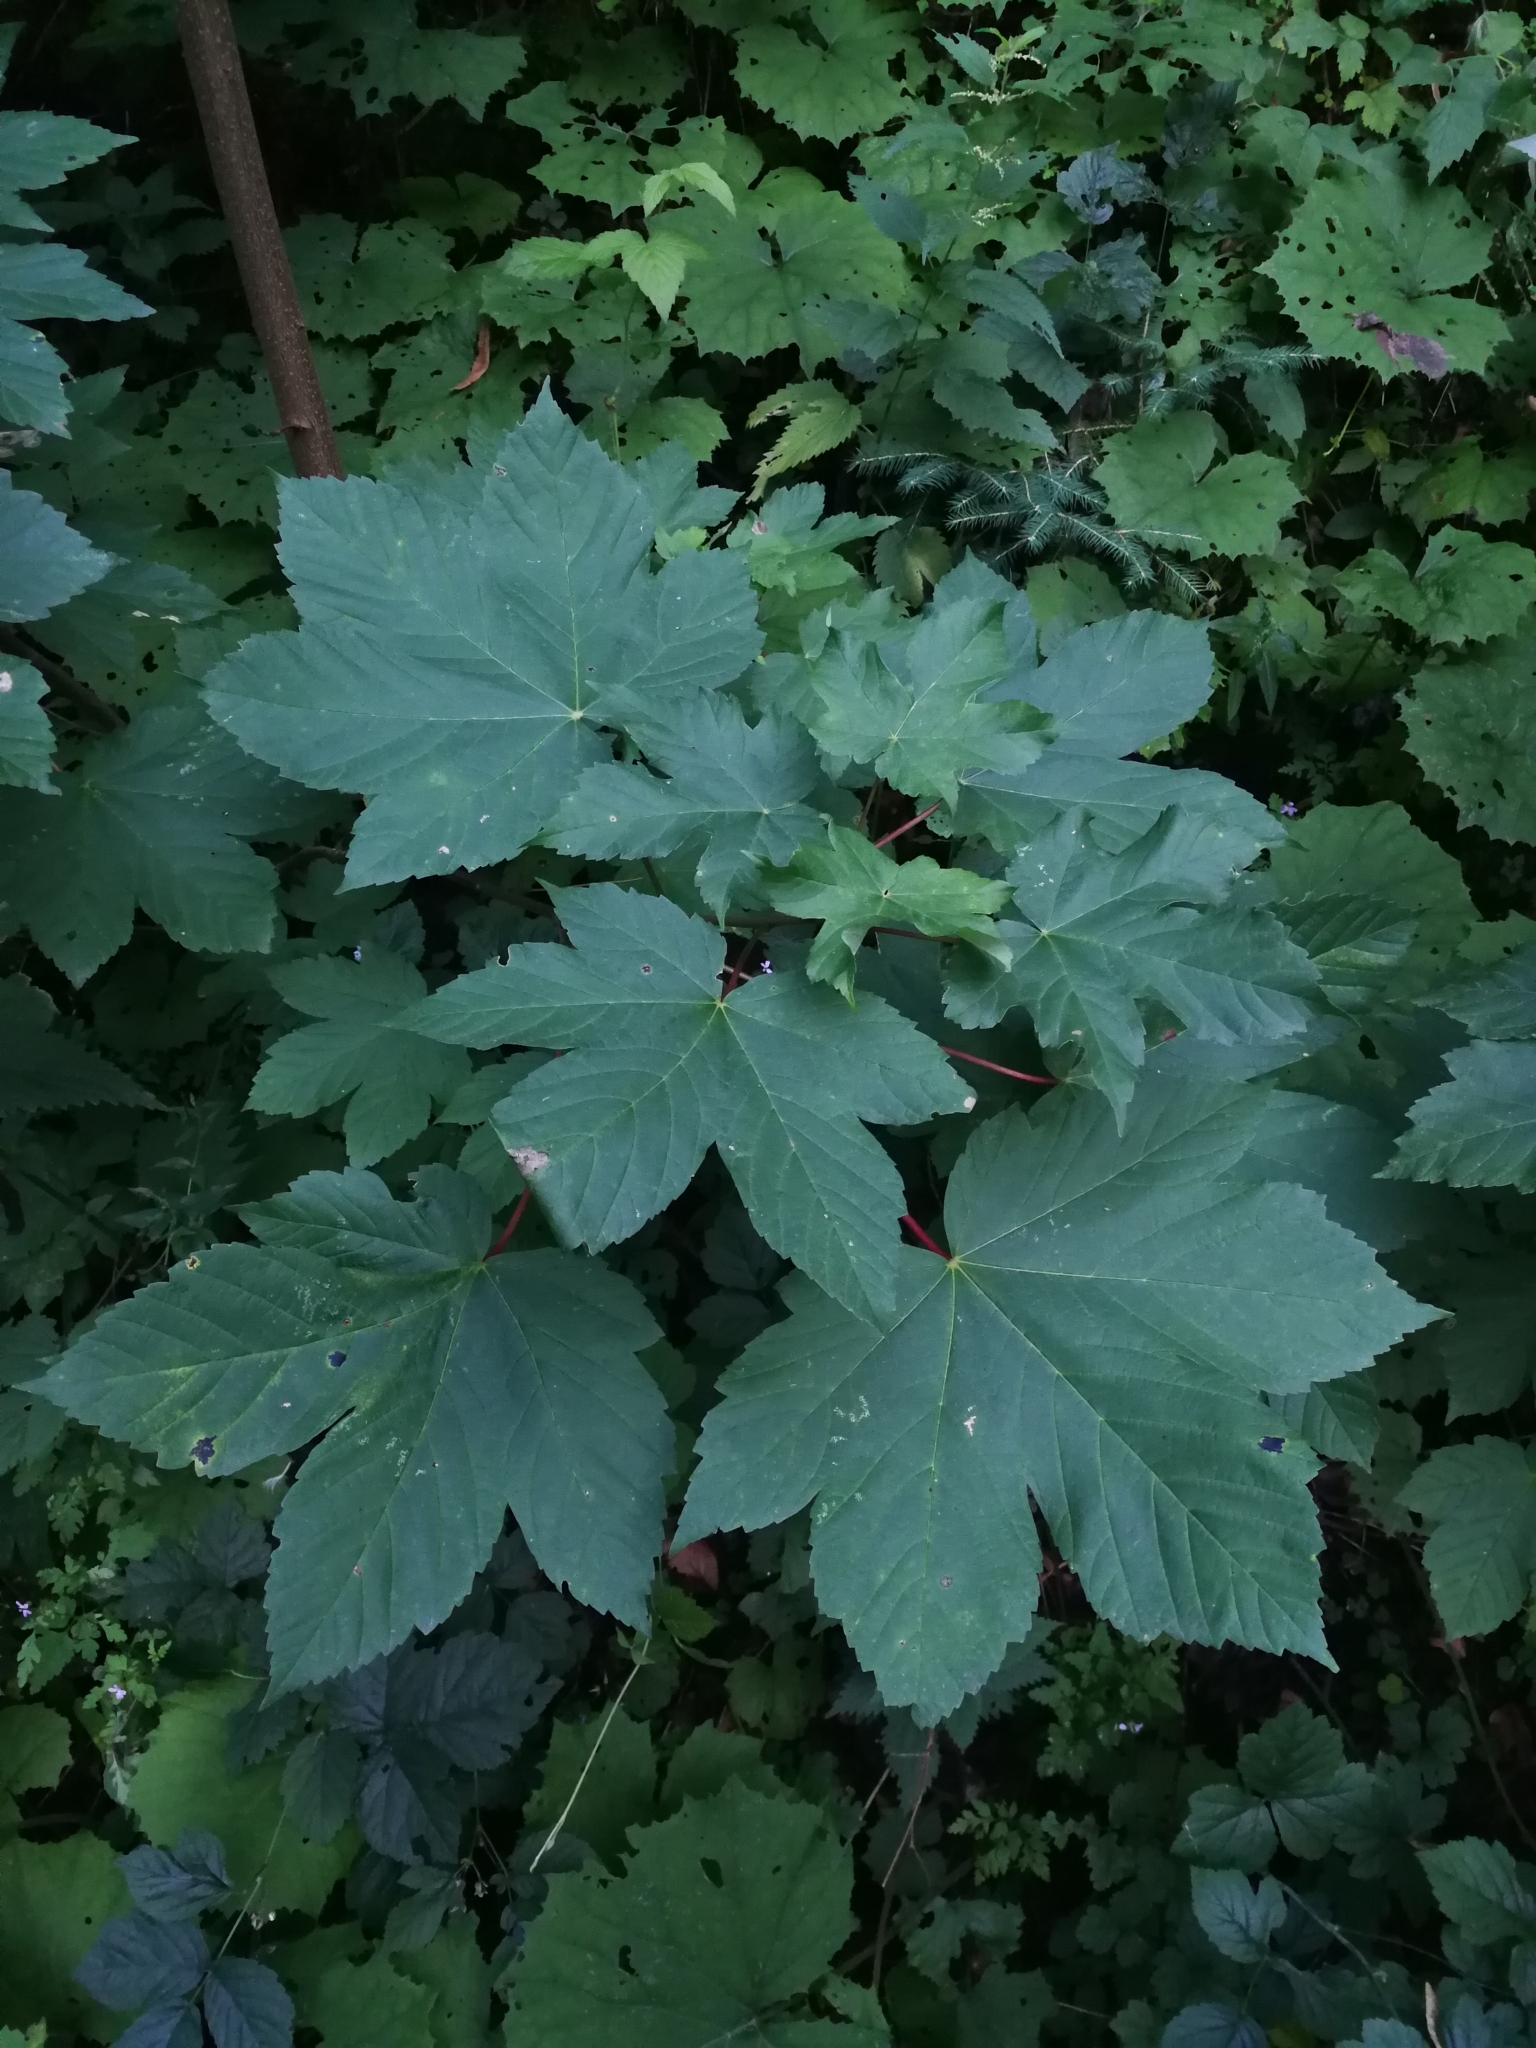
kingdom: Plantae
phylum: Tracheophyta
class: Magnoliopsida
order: Sapindales
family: Sapindaceae
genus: Acer
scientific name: Acer pseudoplatanus
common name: Sycamore
